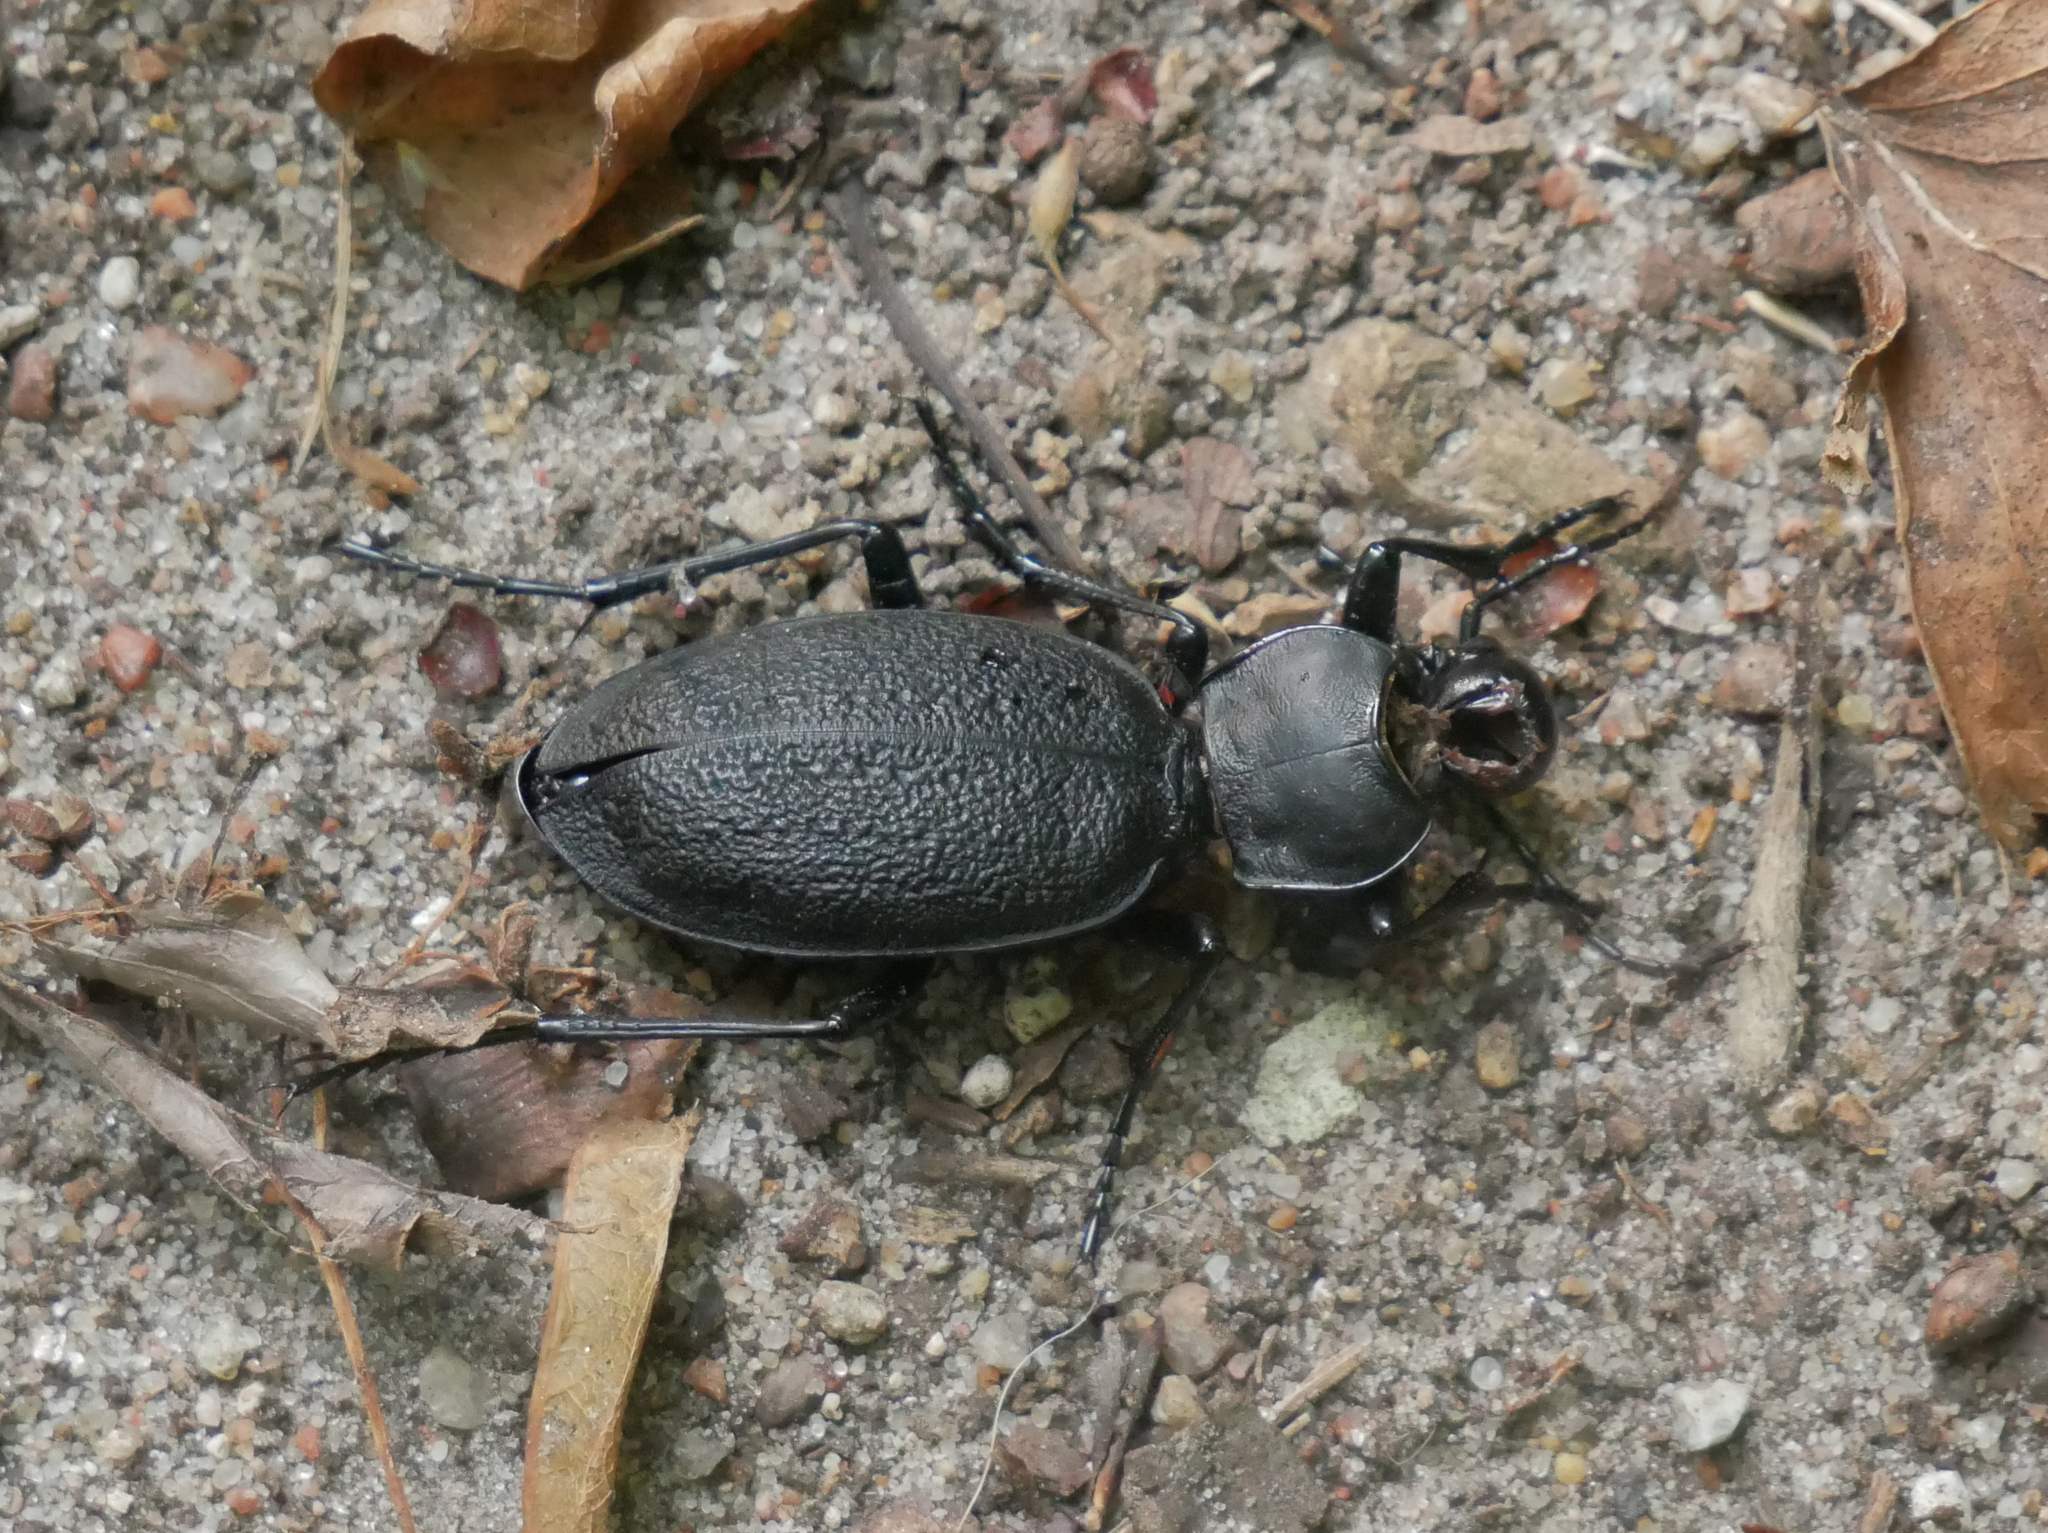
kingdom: Animalia
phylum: Arthropoda
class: Insecta
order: Coleoptera
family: Carabidae
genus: Carabus
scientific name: Carabus coriaceus
